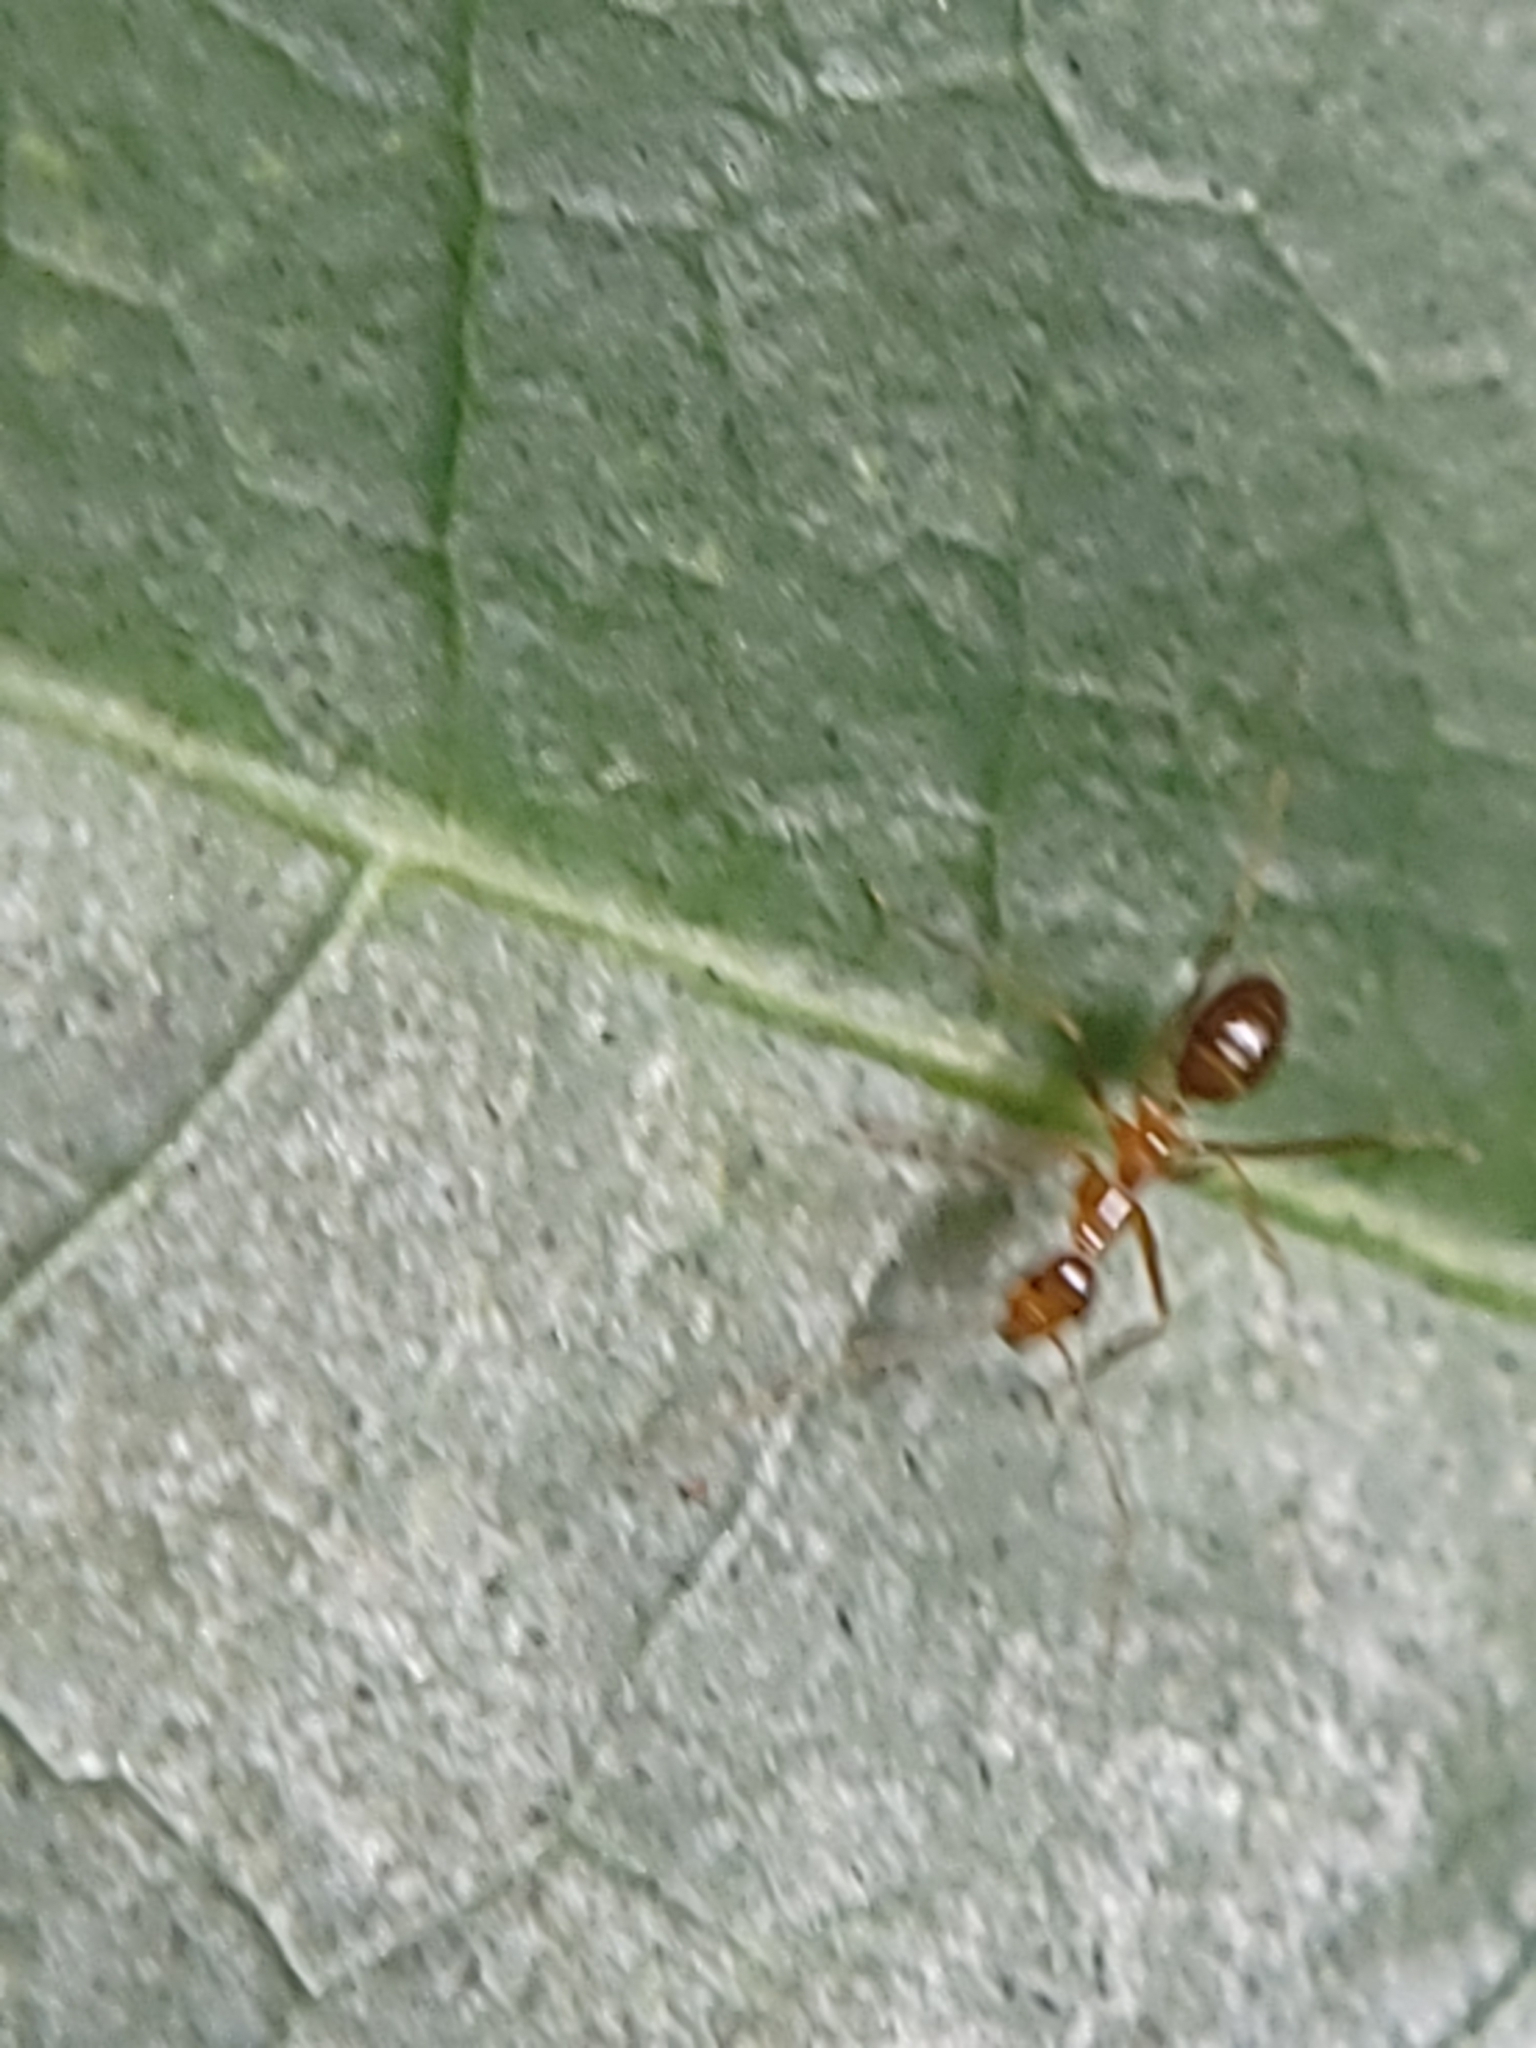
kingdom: Animalia
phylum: Arthropoda
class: Insecta
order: Hymenoptera
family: Formicidae
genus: Anoplolepis
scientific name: Anoplolepis gracilipes
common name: Ant
